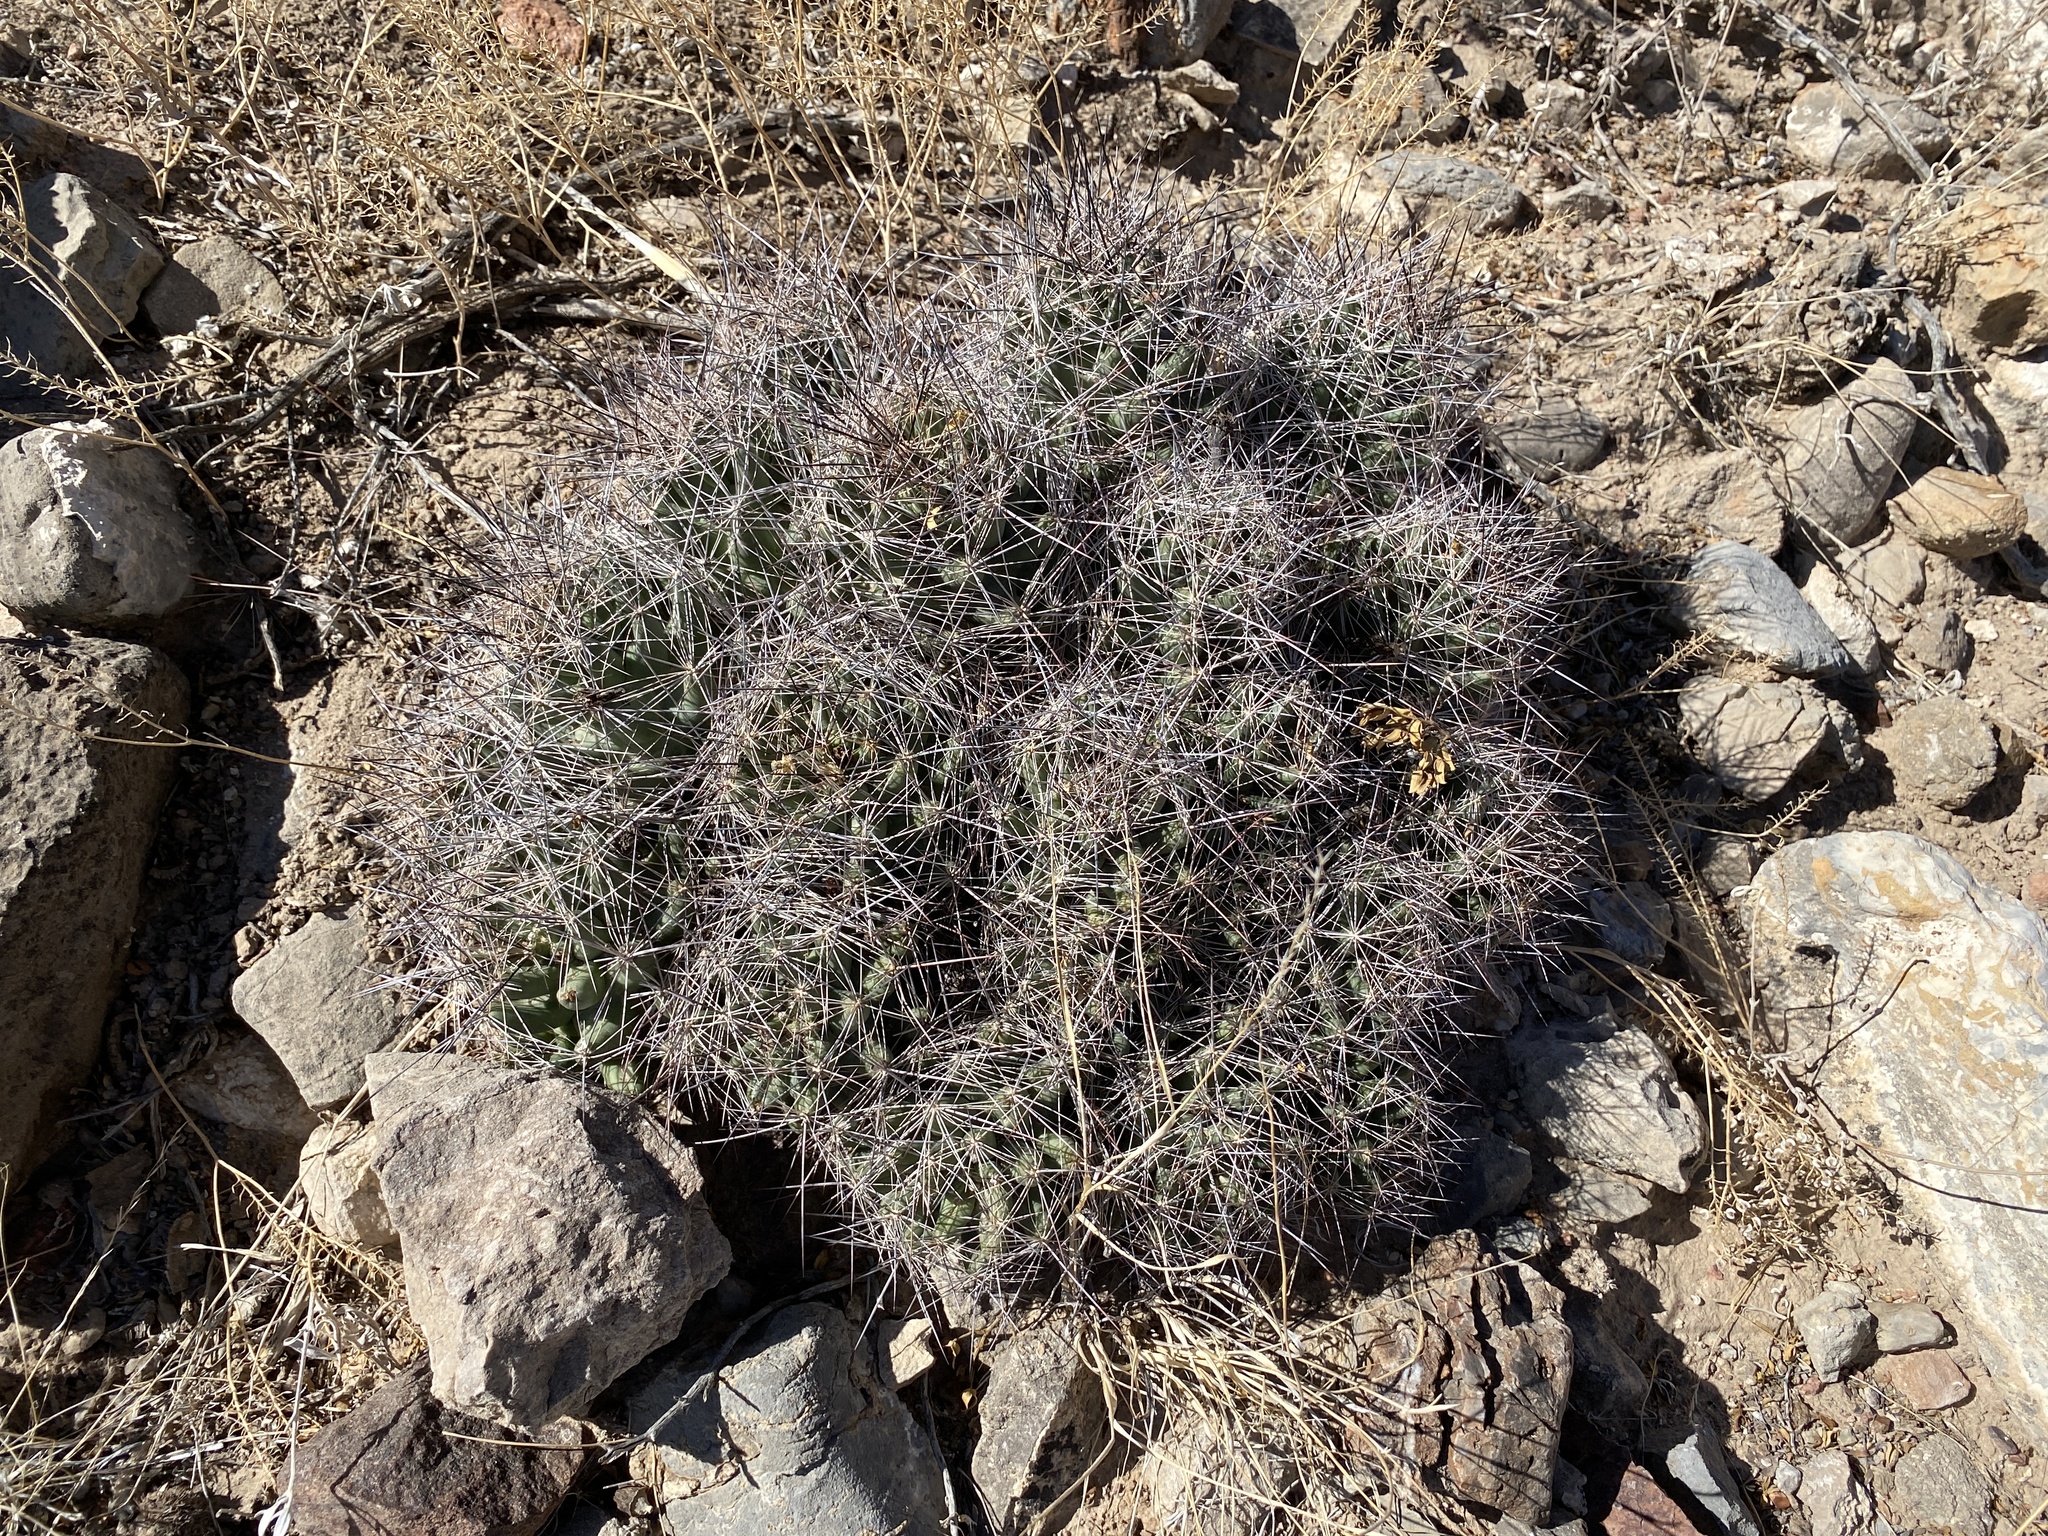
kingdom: Plantae
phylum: Tracheophyta
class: Magnoliopsida
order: Caryophyllales
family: Cactaceae
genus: Coryphantha
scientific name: Coryphantha macromeris
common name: Nipple beehive cactus
